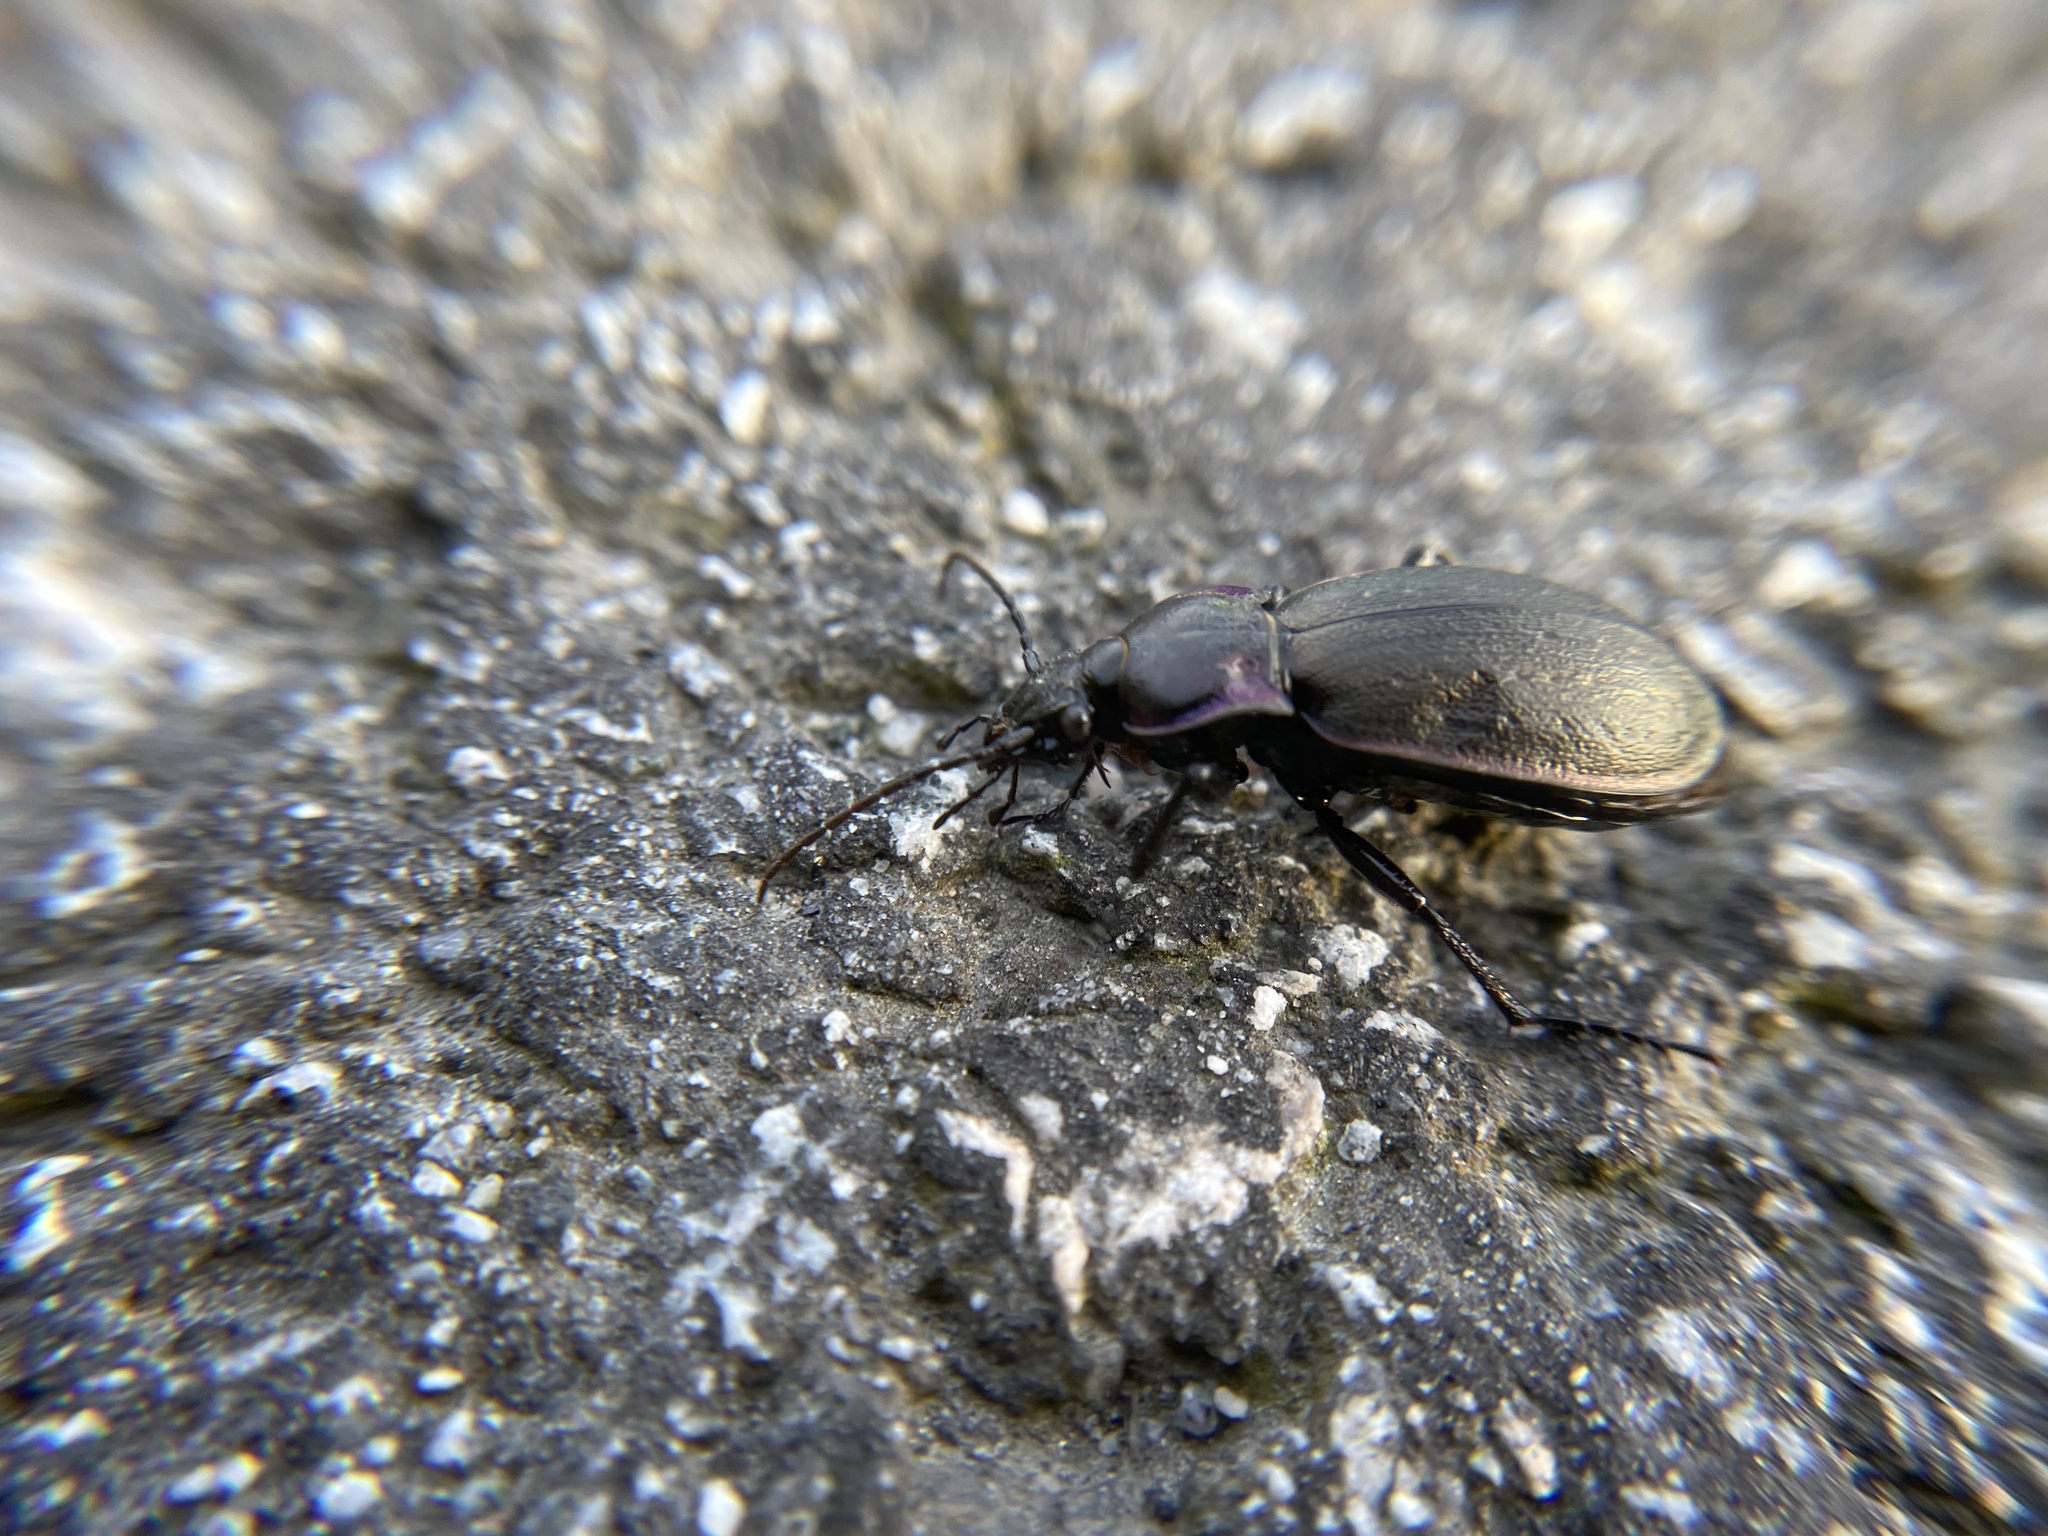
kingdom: Animalia
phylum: Arthropoda
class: Insecta
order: Coleoptera
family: Carabidae
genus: Carabus
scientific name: Carabus nemoralis
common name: European ground beetle
